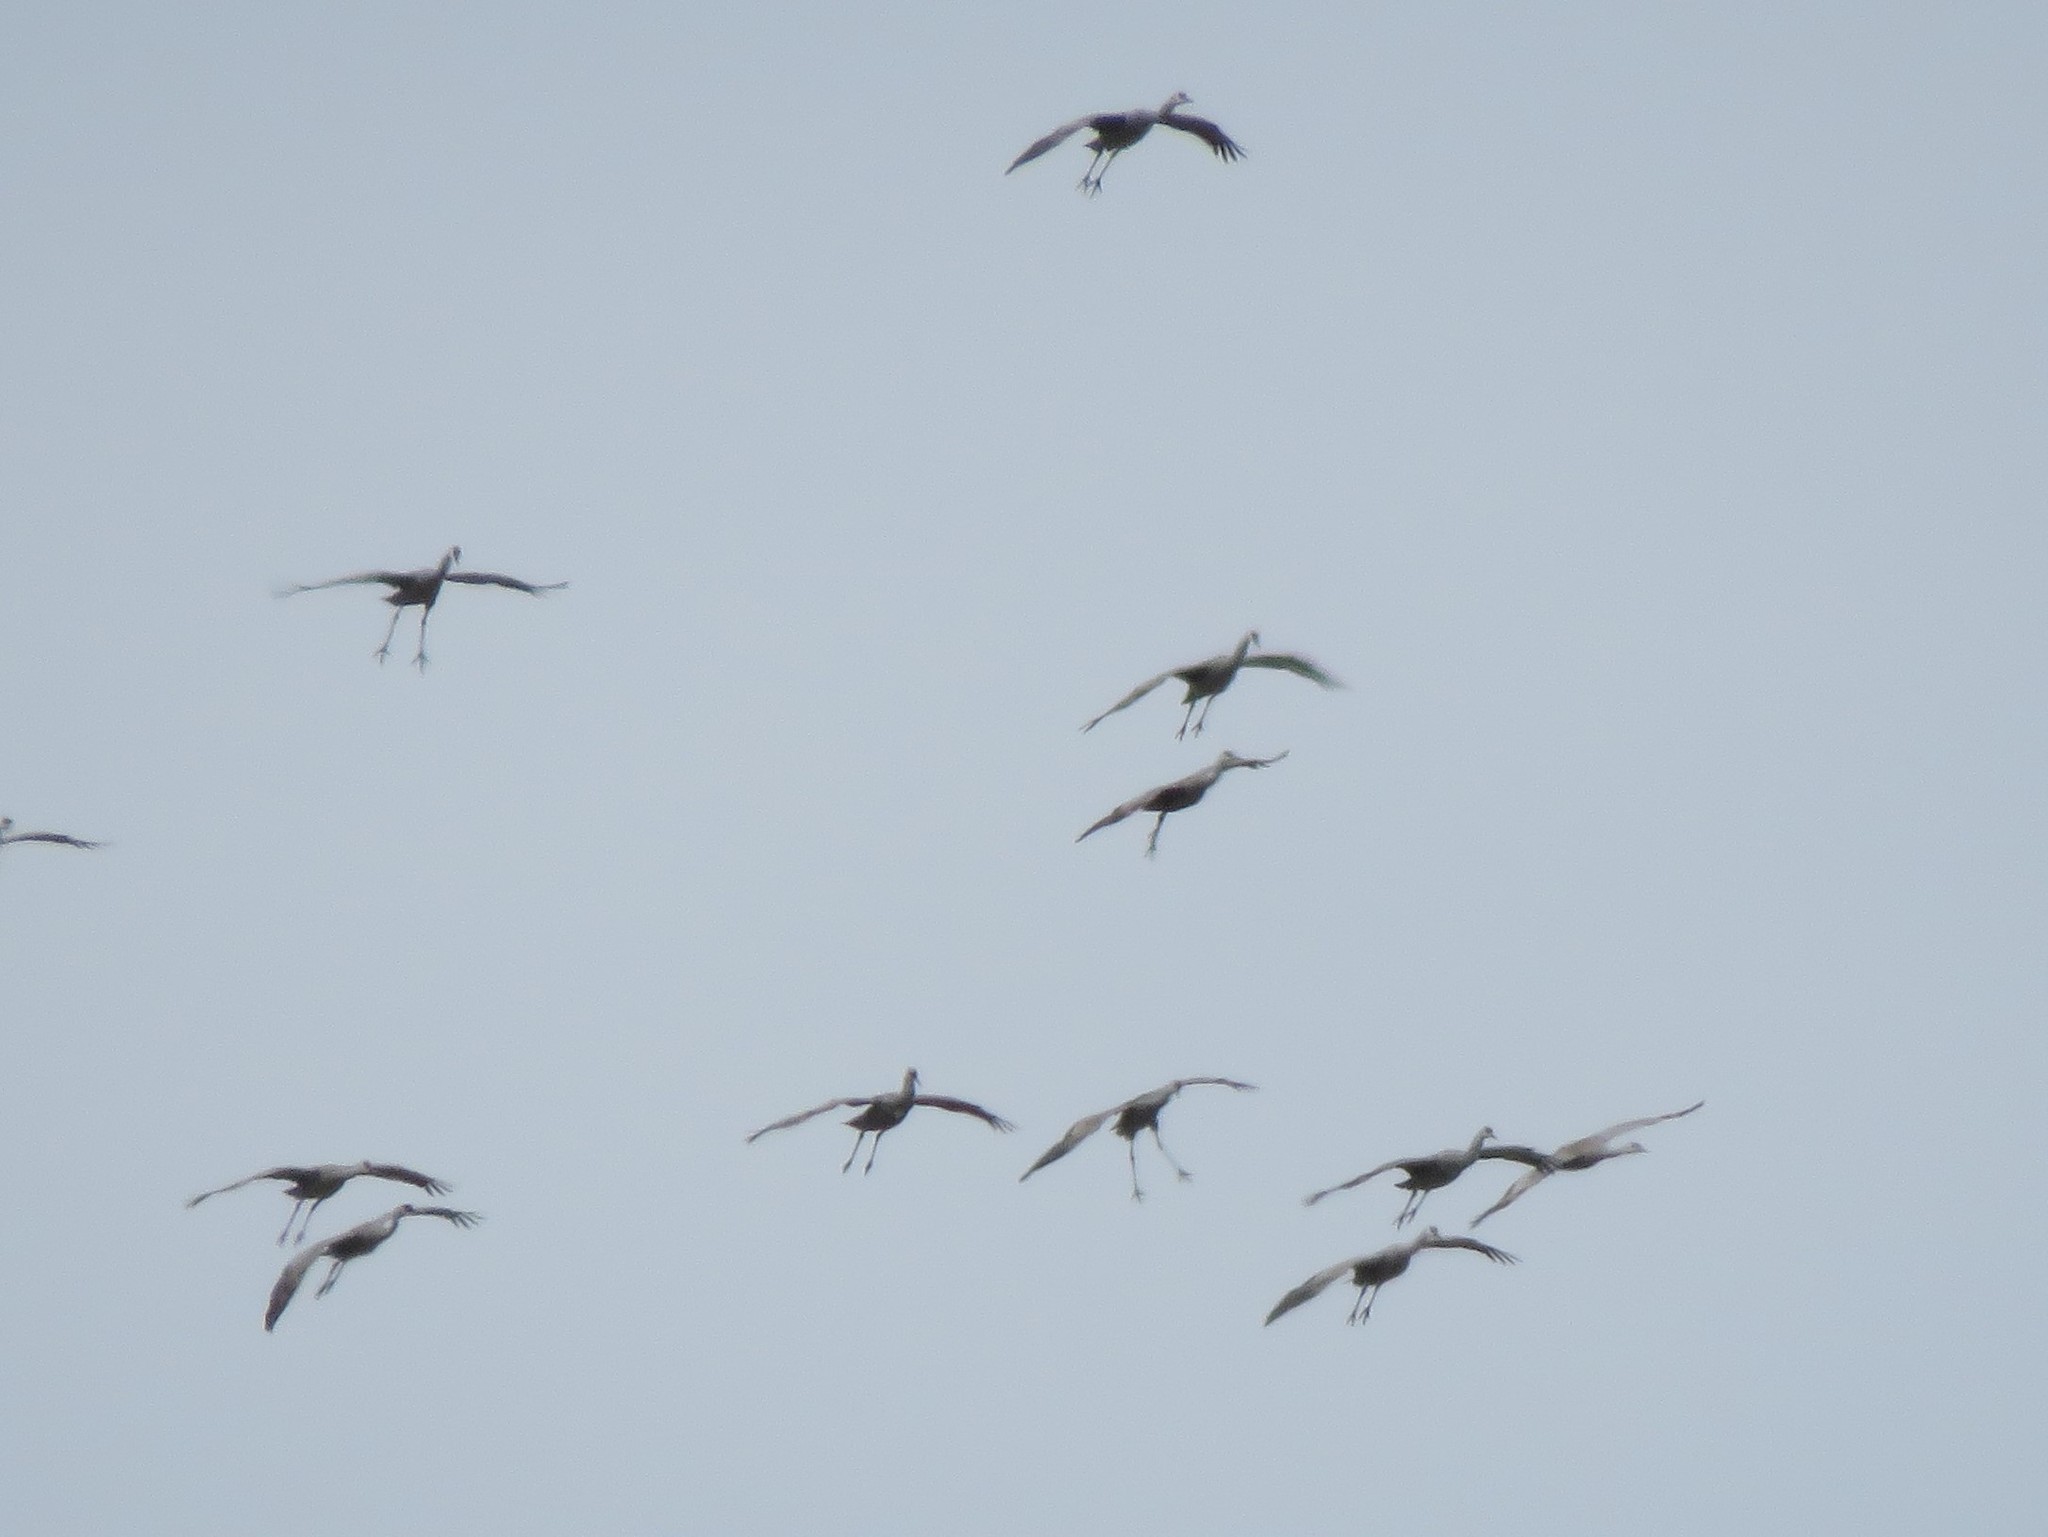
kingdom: Animalia
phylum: Chordata
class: Aves
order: Gruiformes
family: Gruidae
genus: Grus
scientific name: Grus canadensis
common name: Sandhill crane
